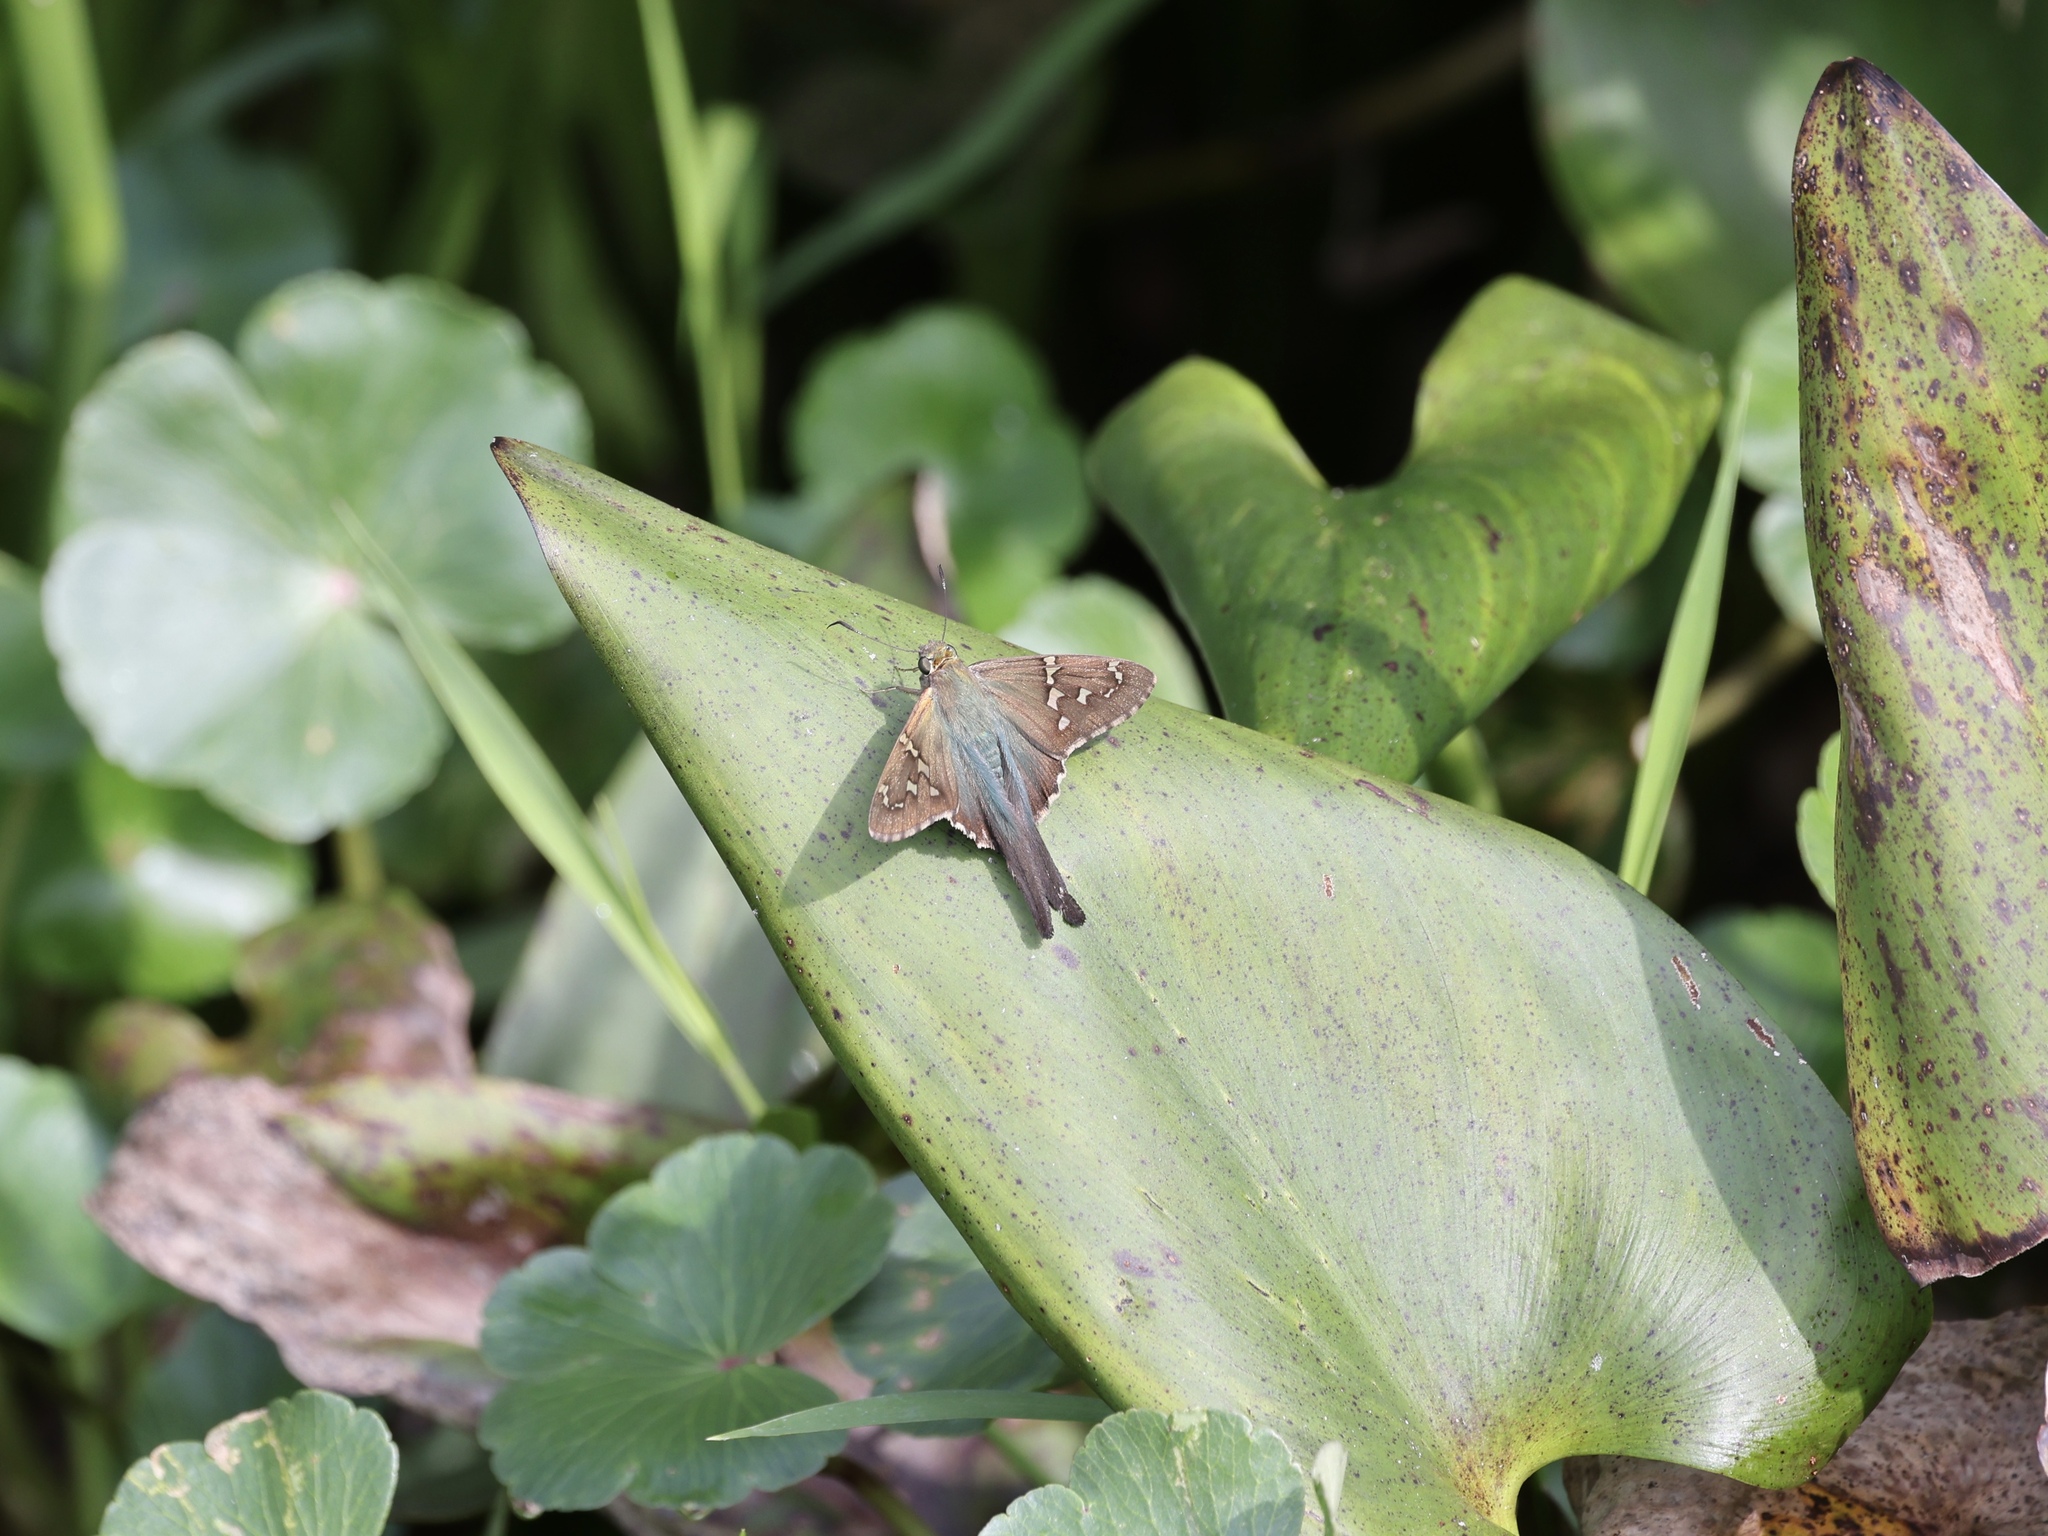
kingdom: Animalia
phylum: Arthropoda
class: Insecta
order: Lepidoptera
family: Hesperiidae
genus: Urbanus
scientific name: Urbanus proteus
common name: Long-tailed skipper
